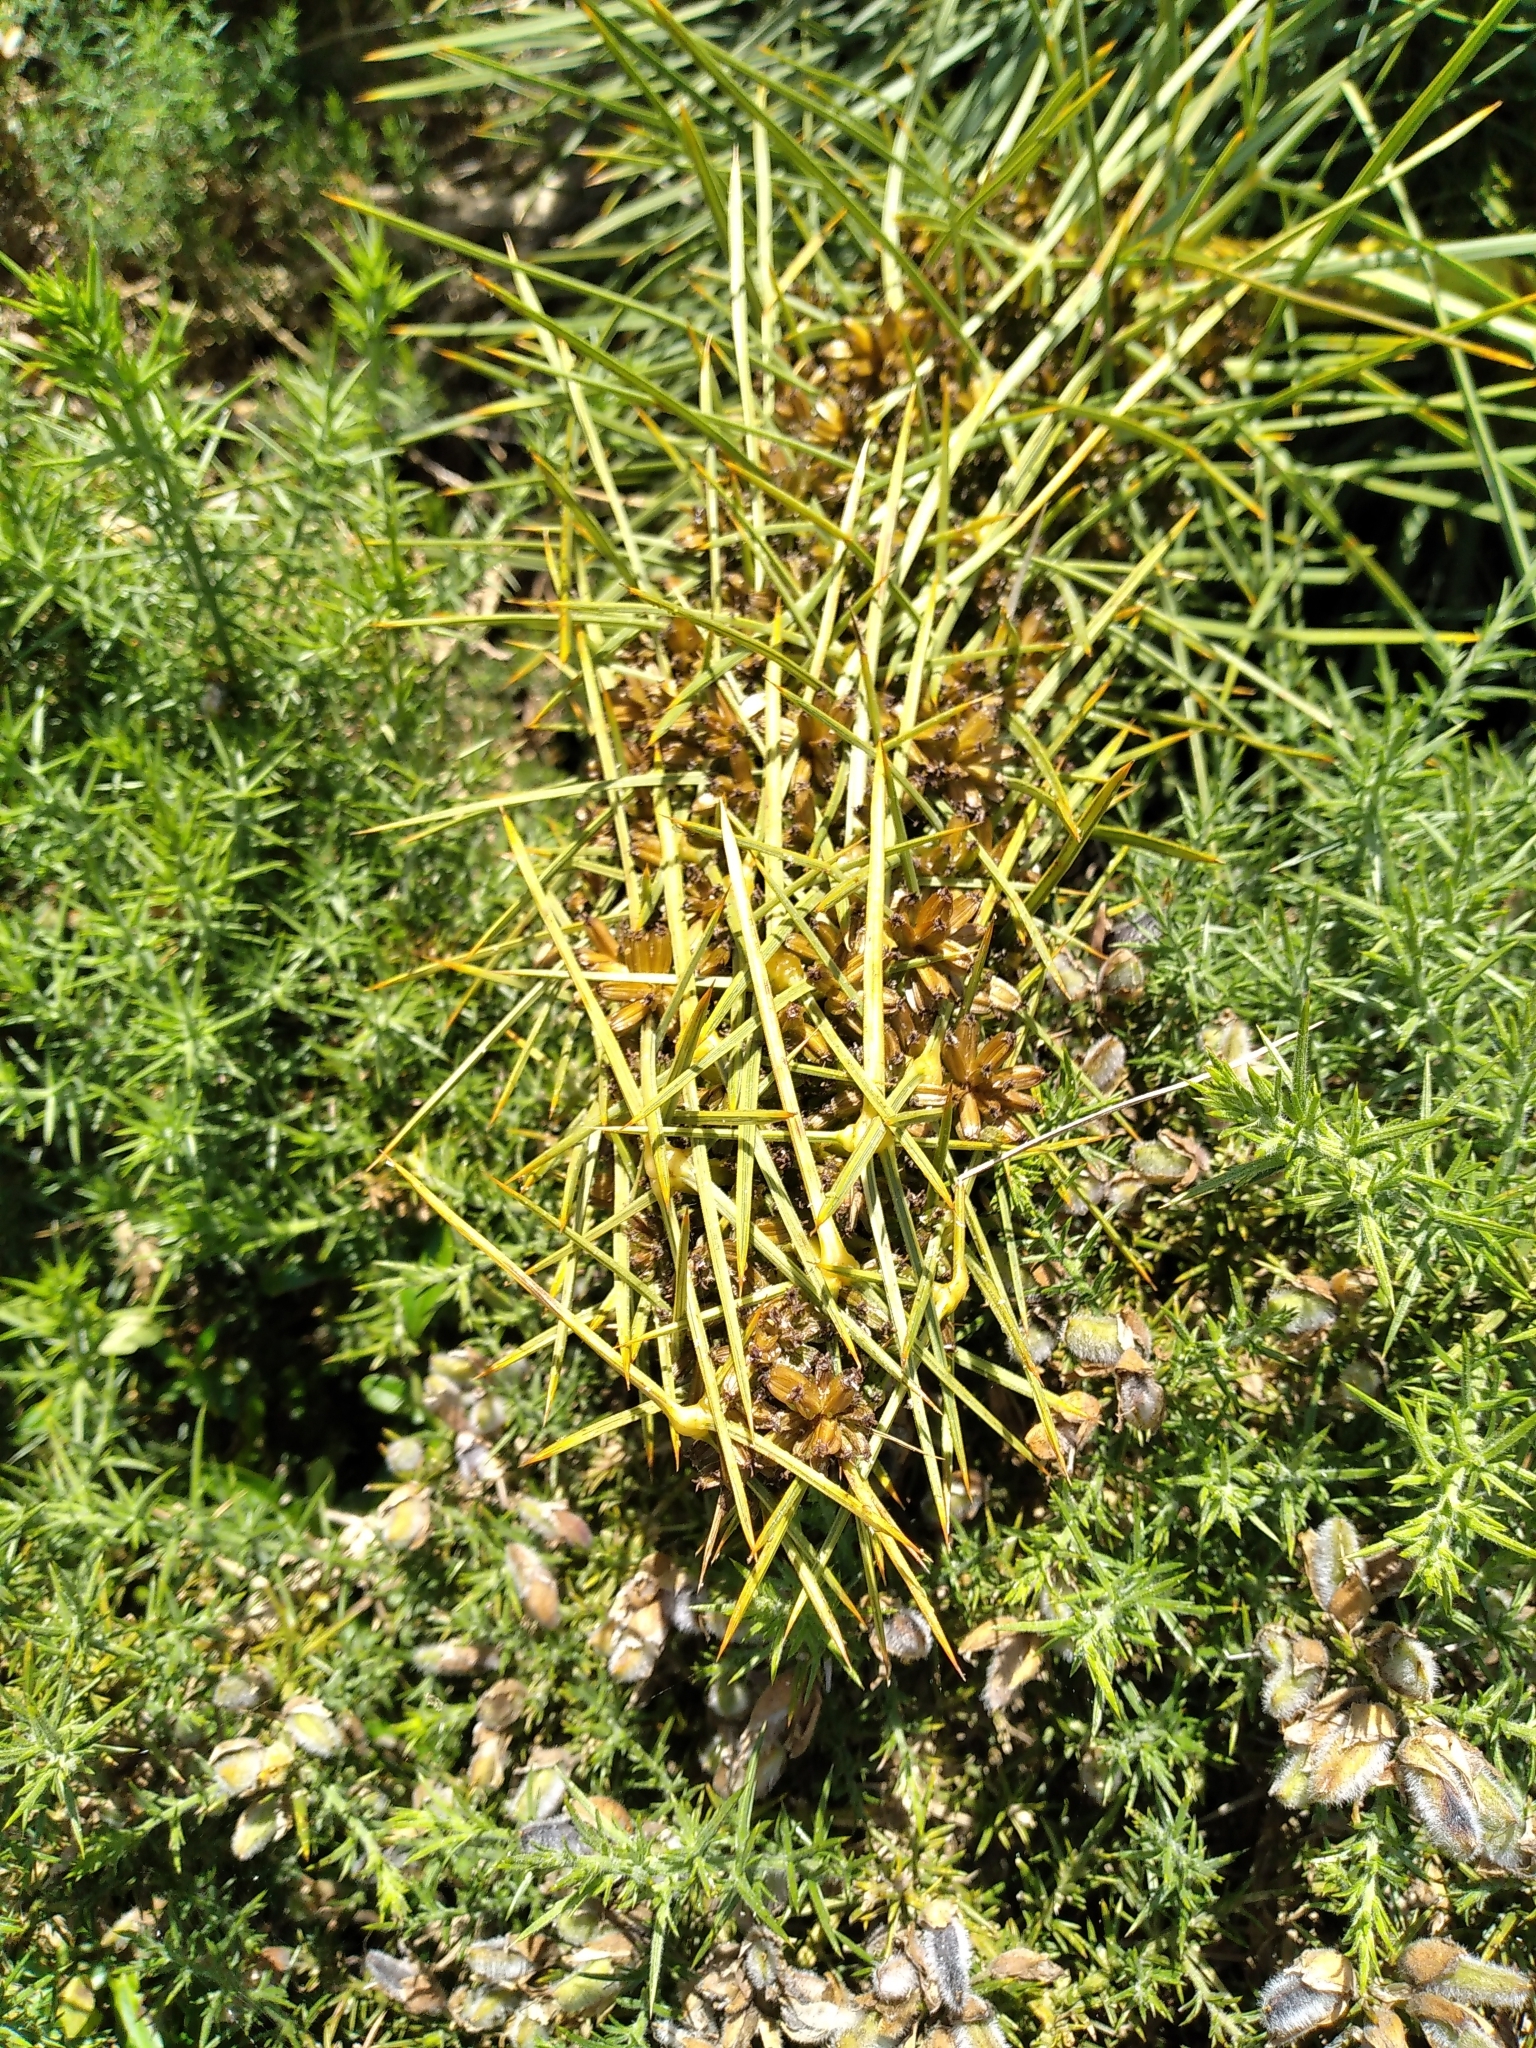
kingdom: Plantae
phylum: Tracheophyta
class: Magnoliopsida
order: Apiales
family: Apiaceae
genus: Aciphylla
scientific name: Aciphylla squarrosa
